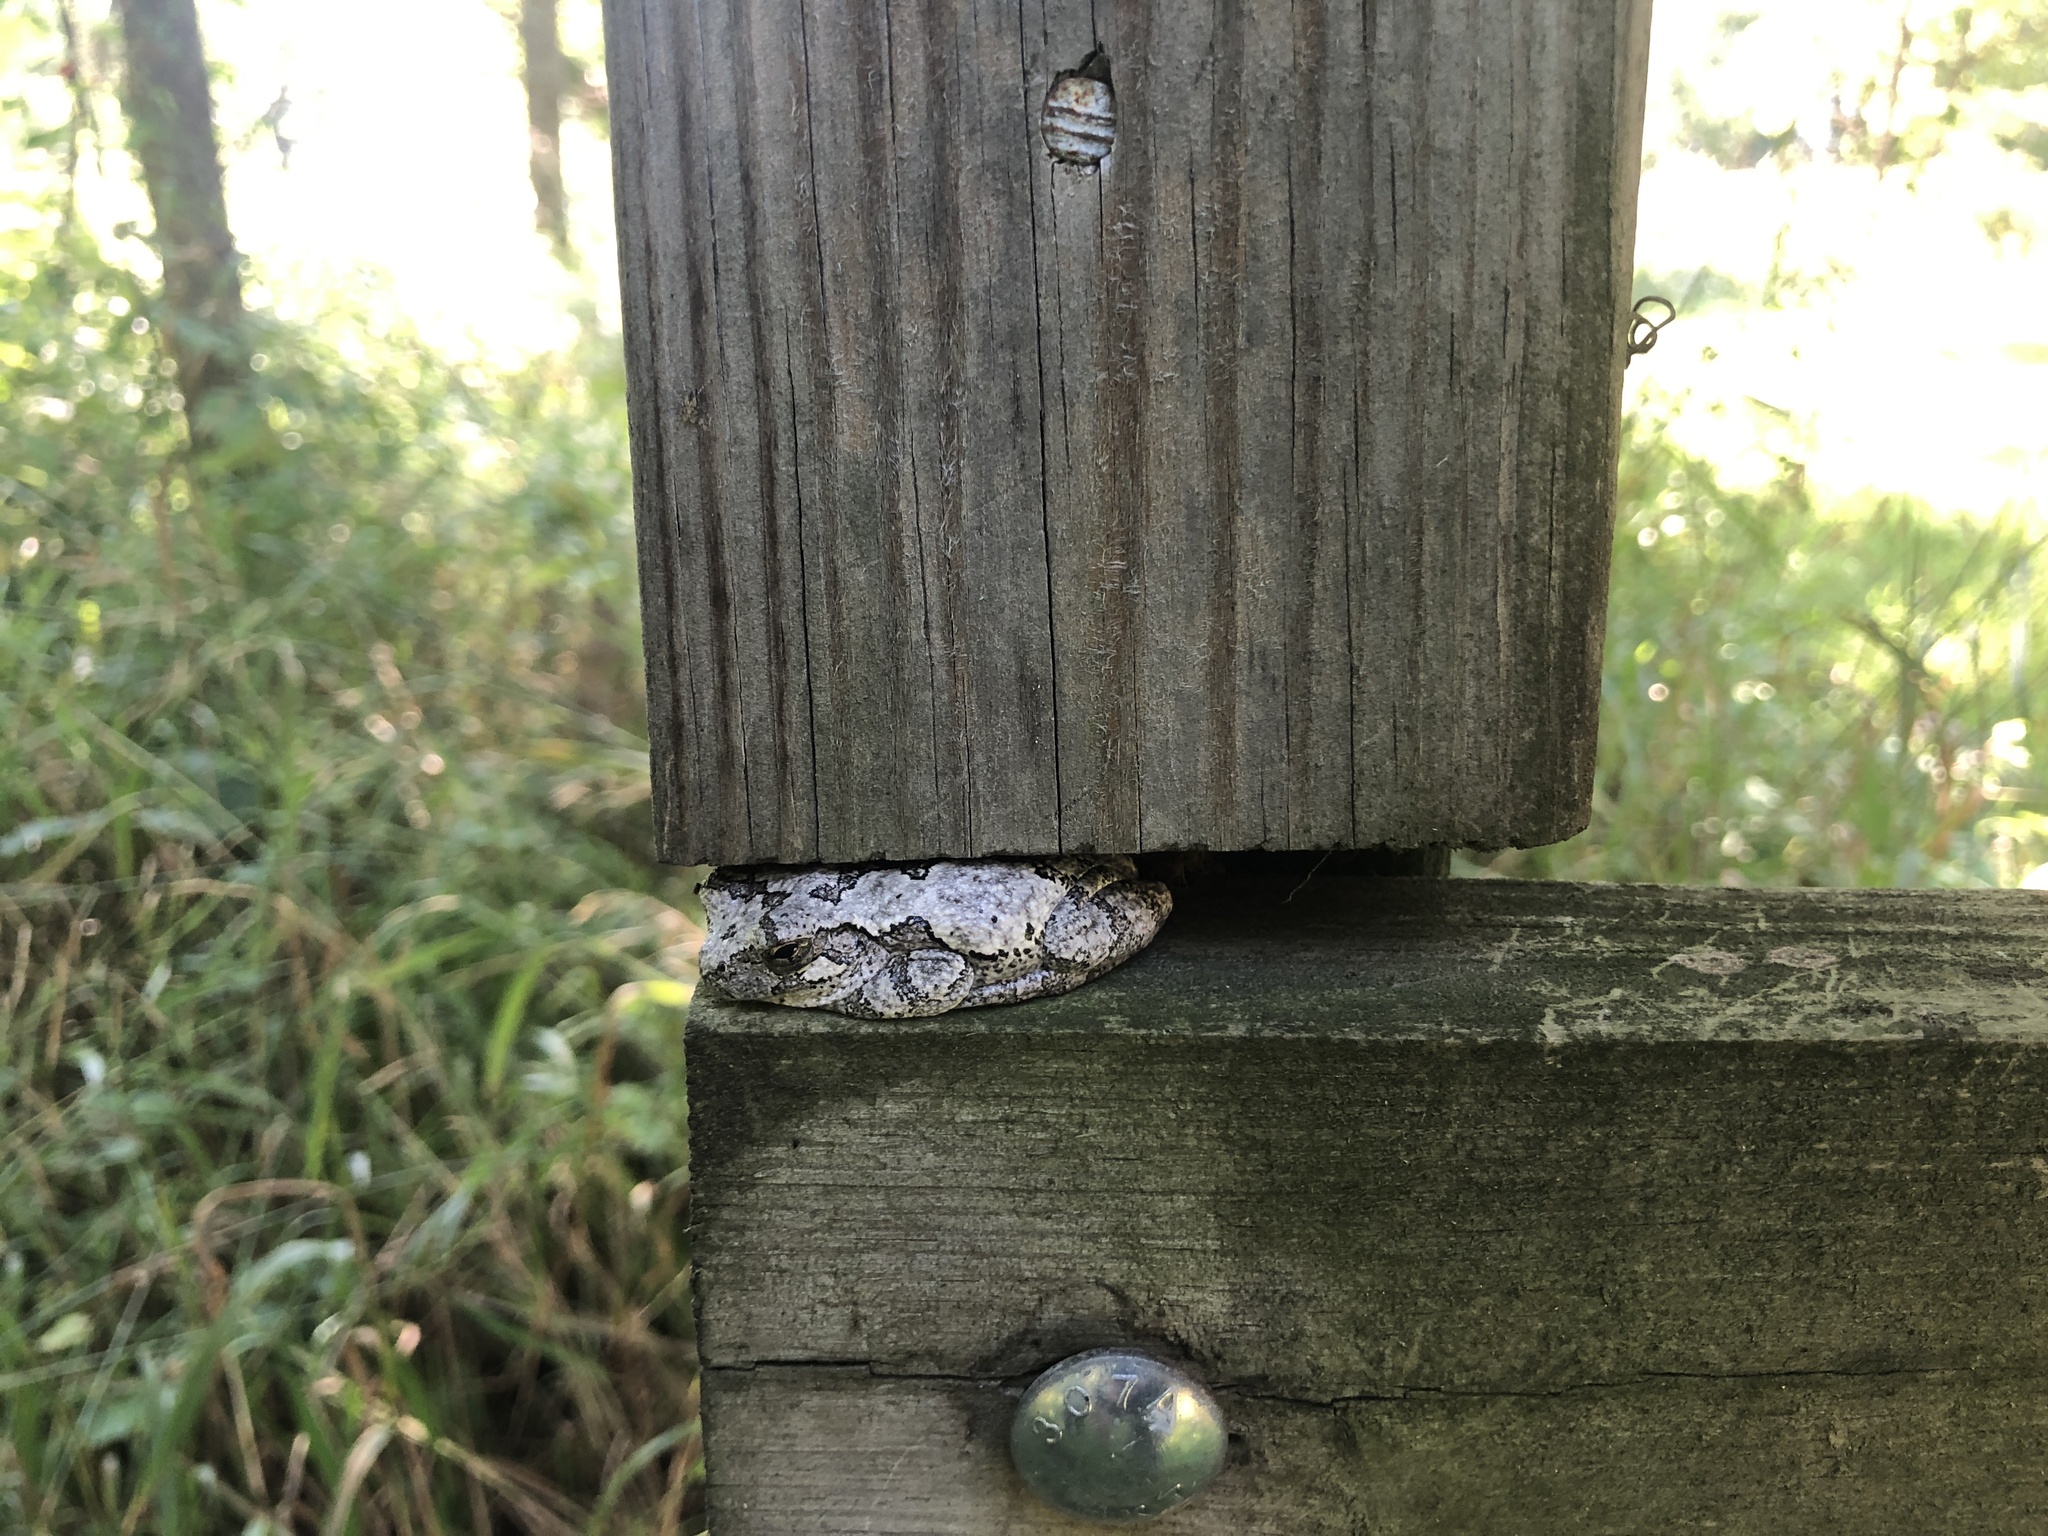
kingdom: Animalia
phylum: Chordata
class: Amphibia
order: Anura
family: Hylidae
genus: Dryophytes
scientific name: Dryophytes versicolor
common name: Gray treefrog
